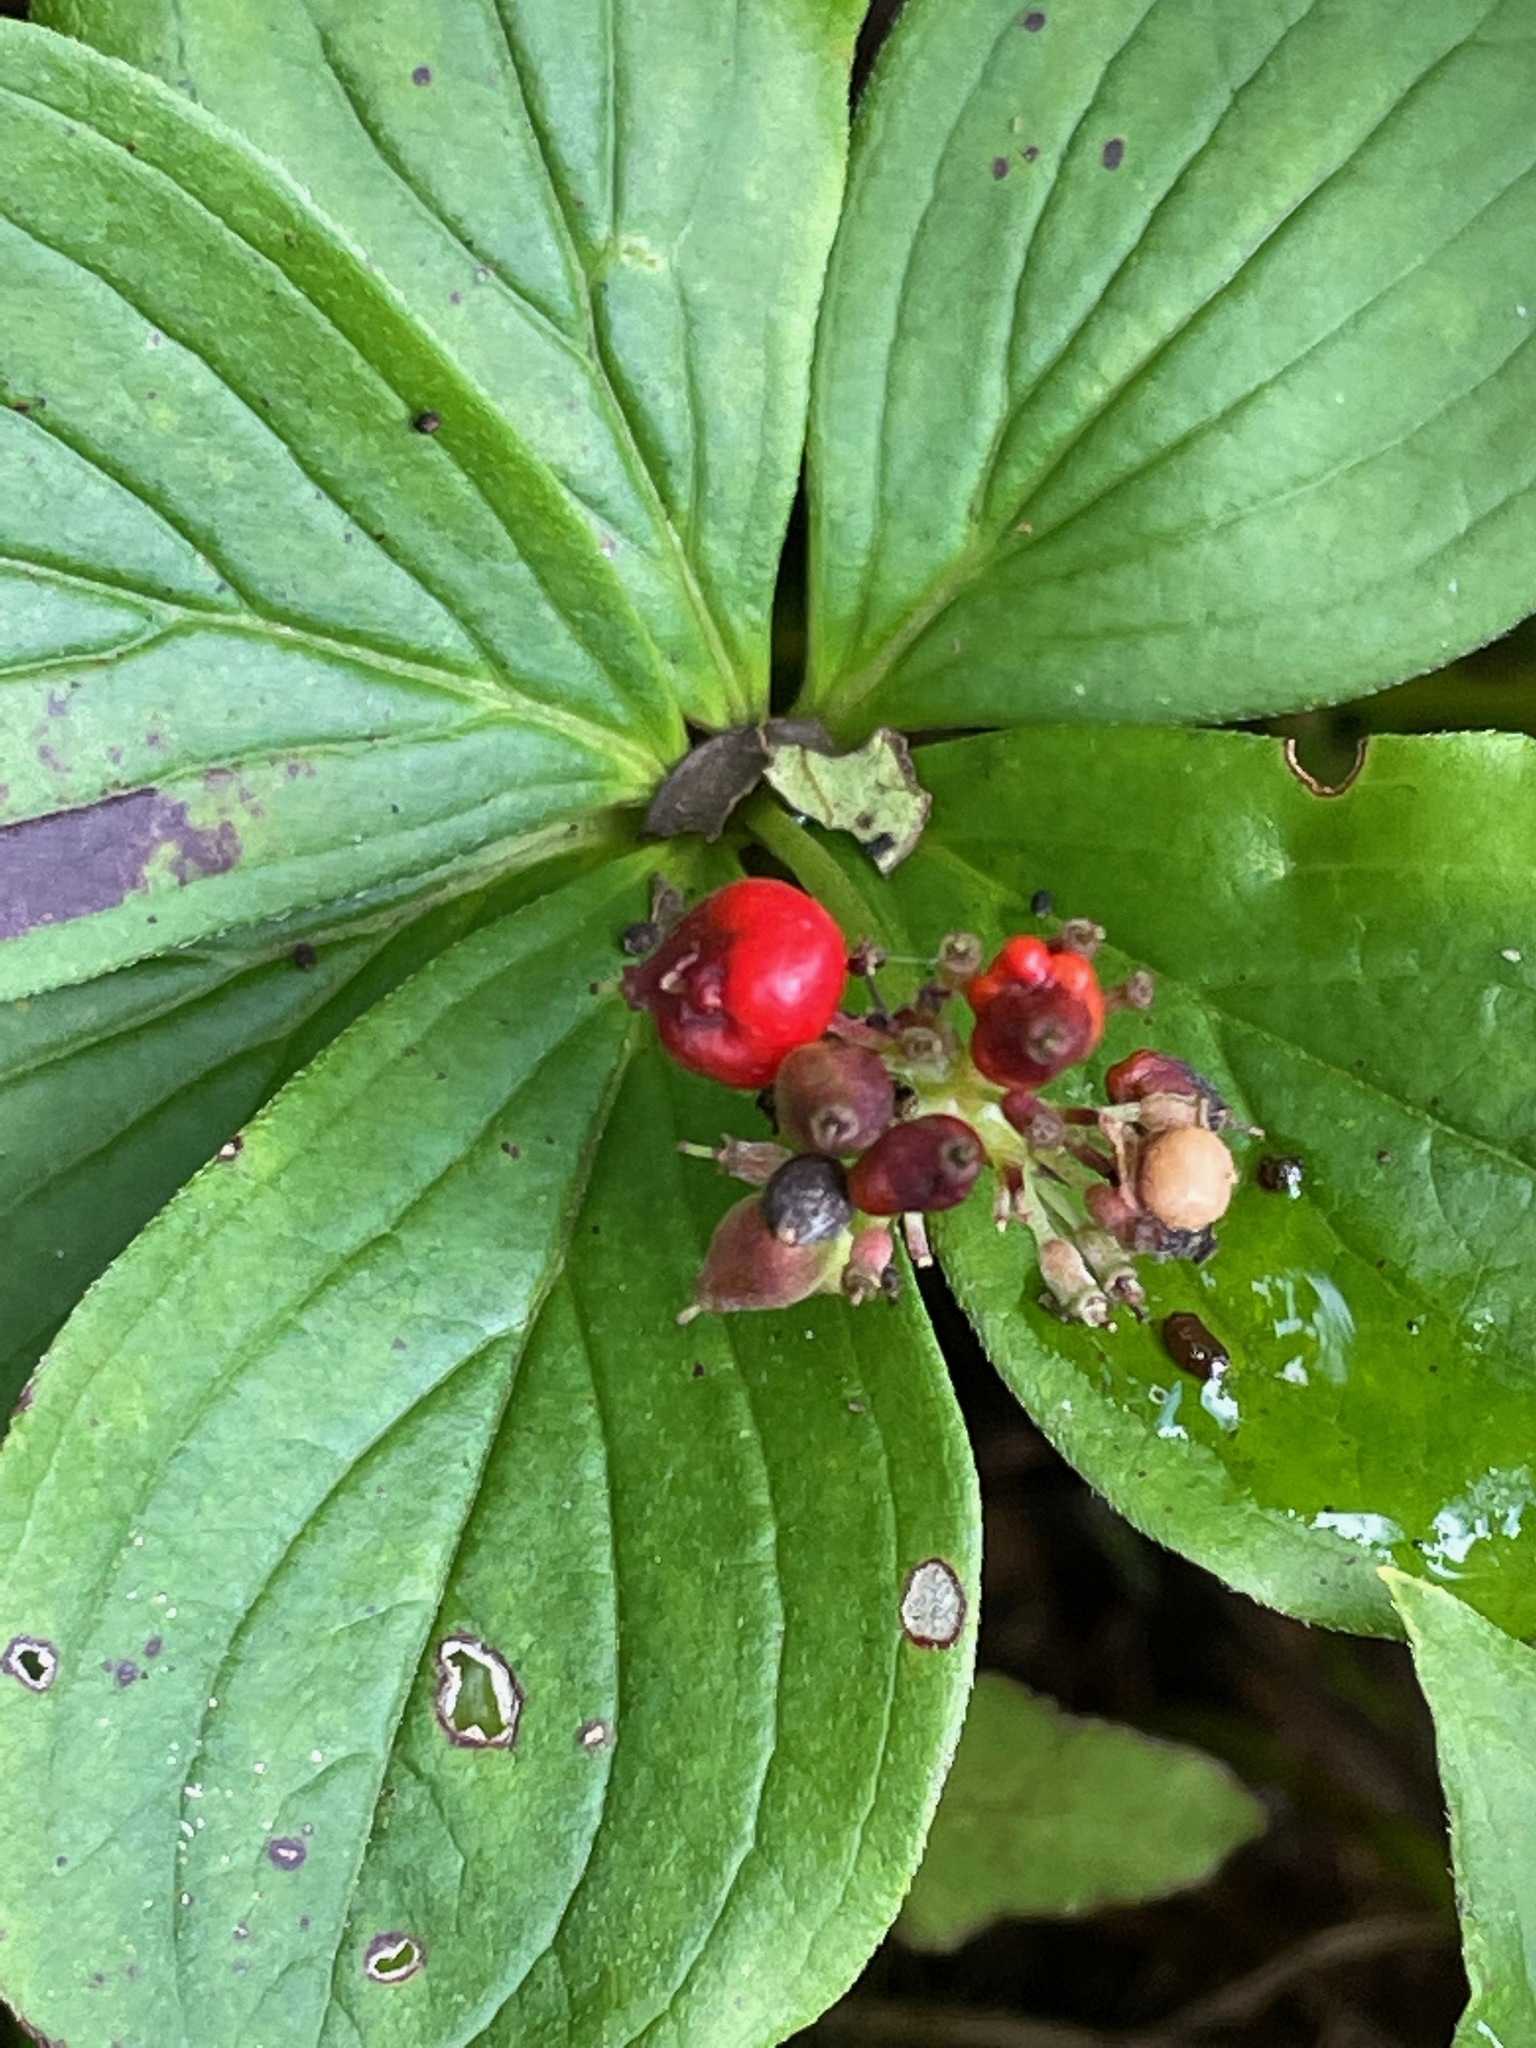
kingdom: Plantae
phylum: Tracheophyta
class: Magnoliopsida
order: Cornales
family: Cornaceae
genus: Cornus
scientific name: Cornus canadensis
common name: Creeping dogwood
